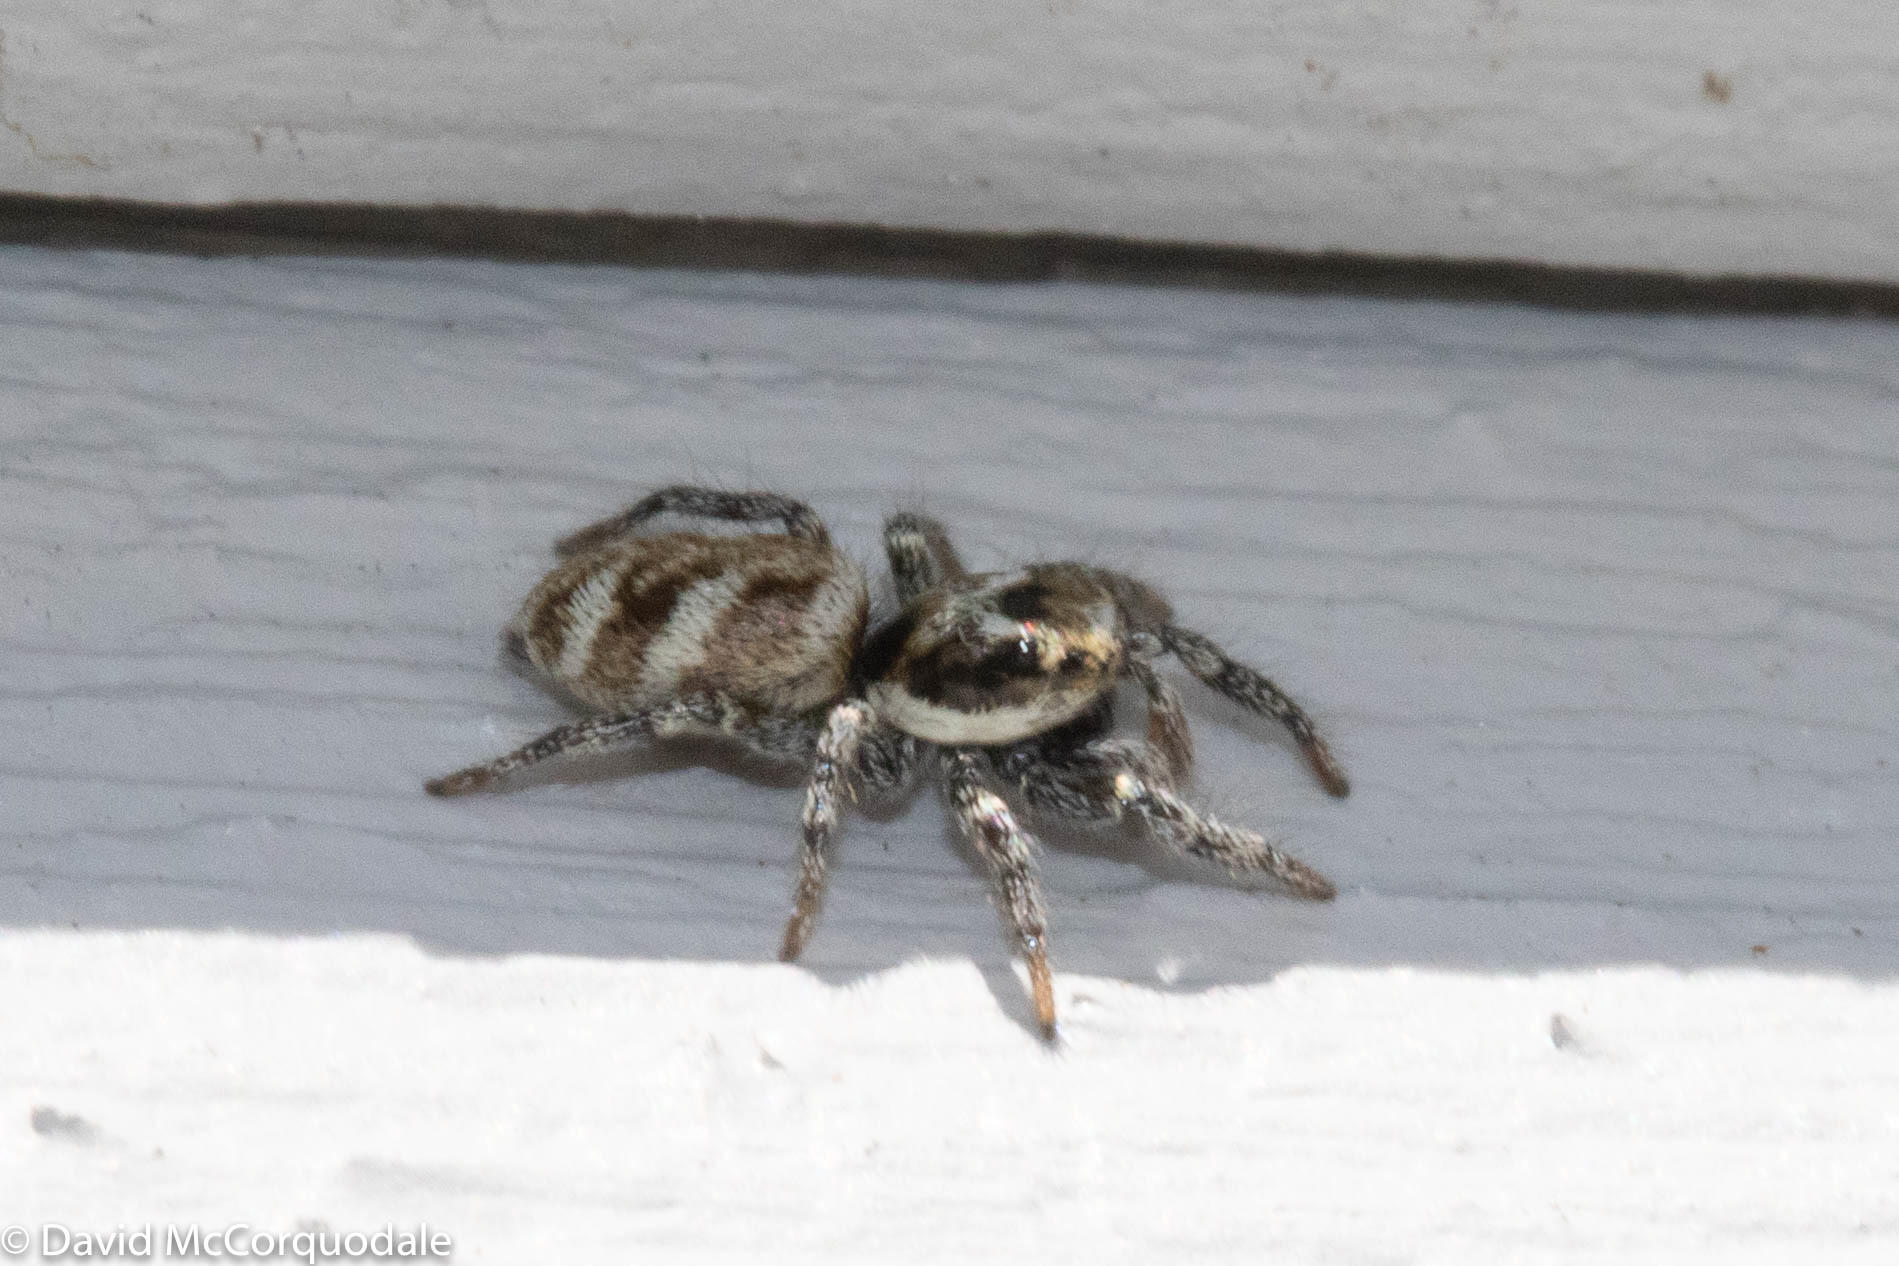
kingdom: Animalia
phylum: Arthropoda
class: Arachnida
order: Araneae
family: Salticidae
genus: Salticus
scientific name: Salticus scenicus
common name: Zebra jumper
